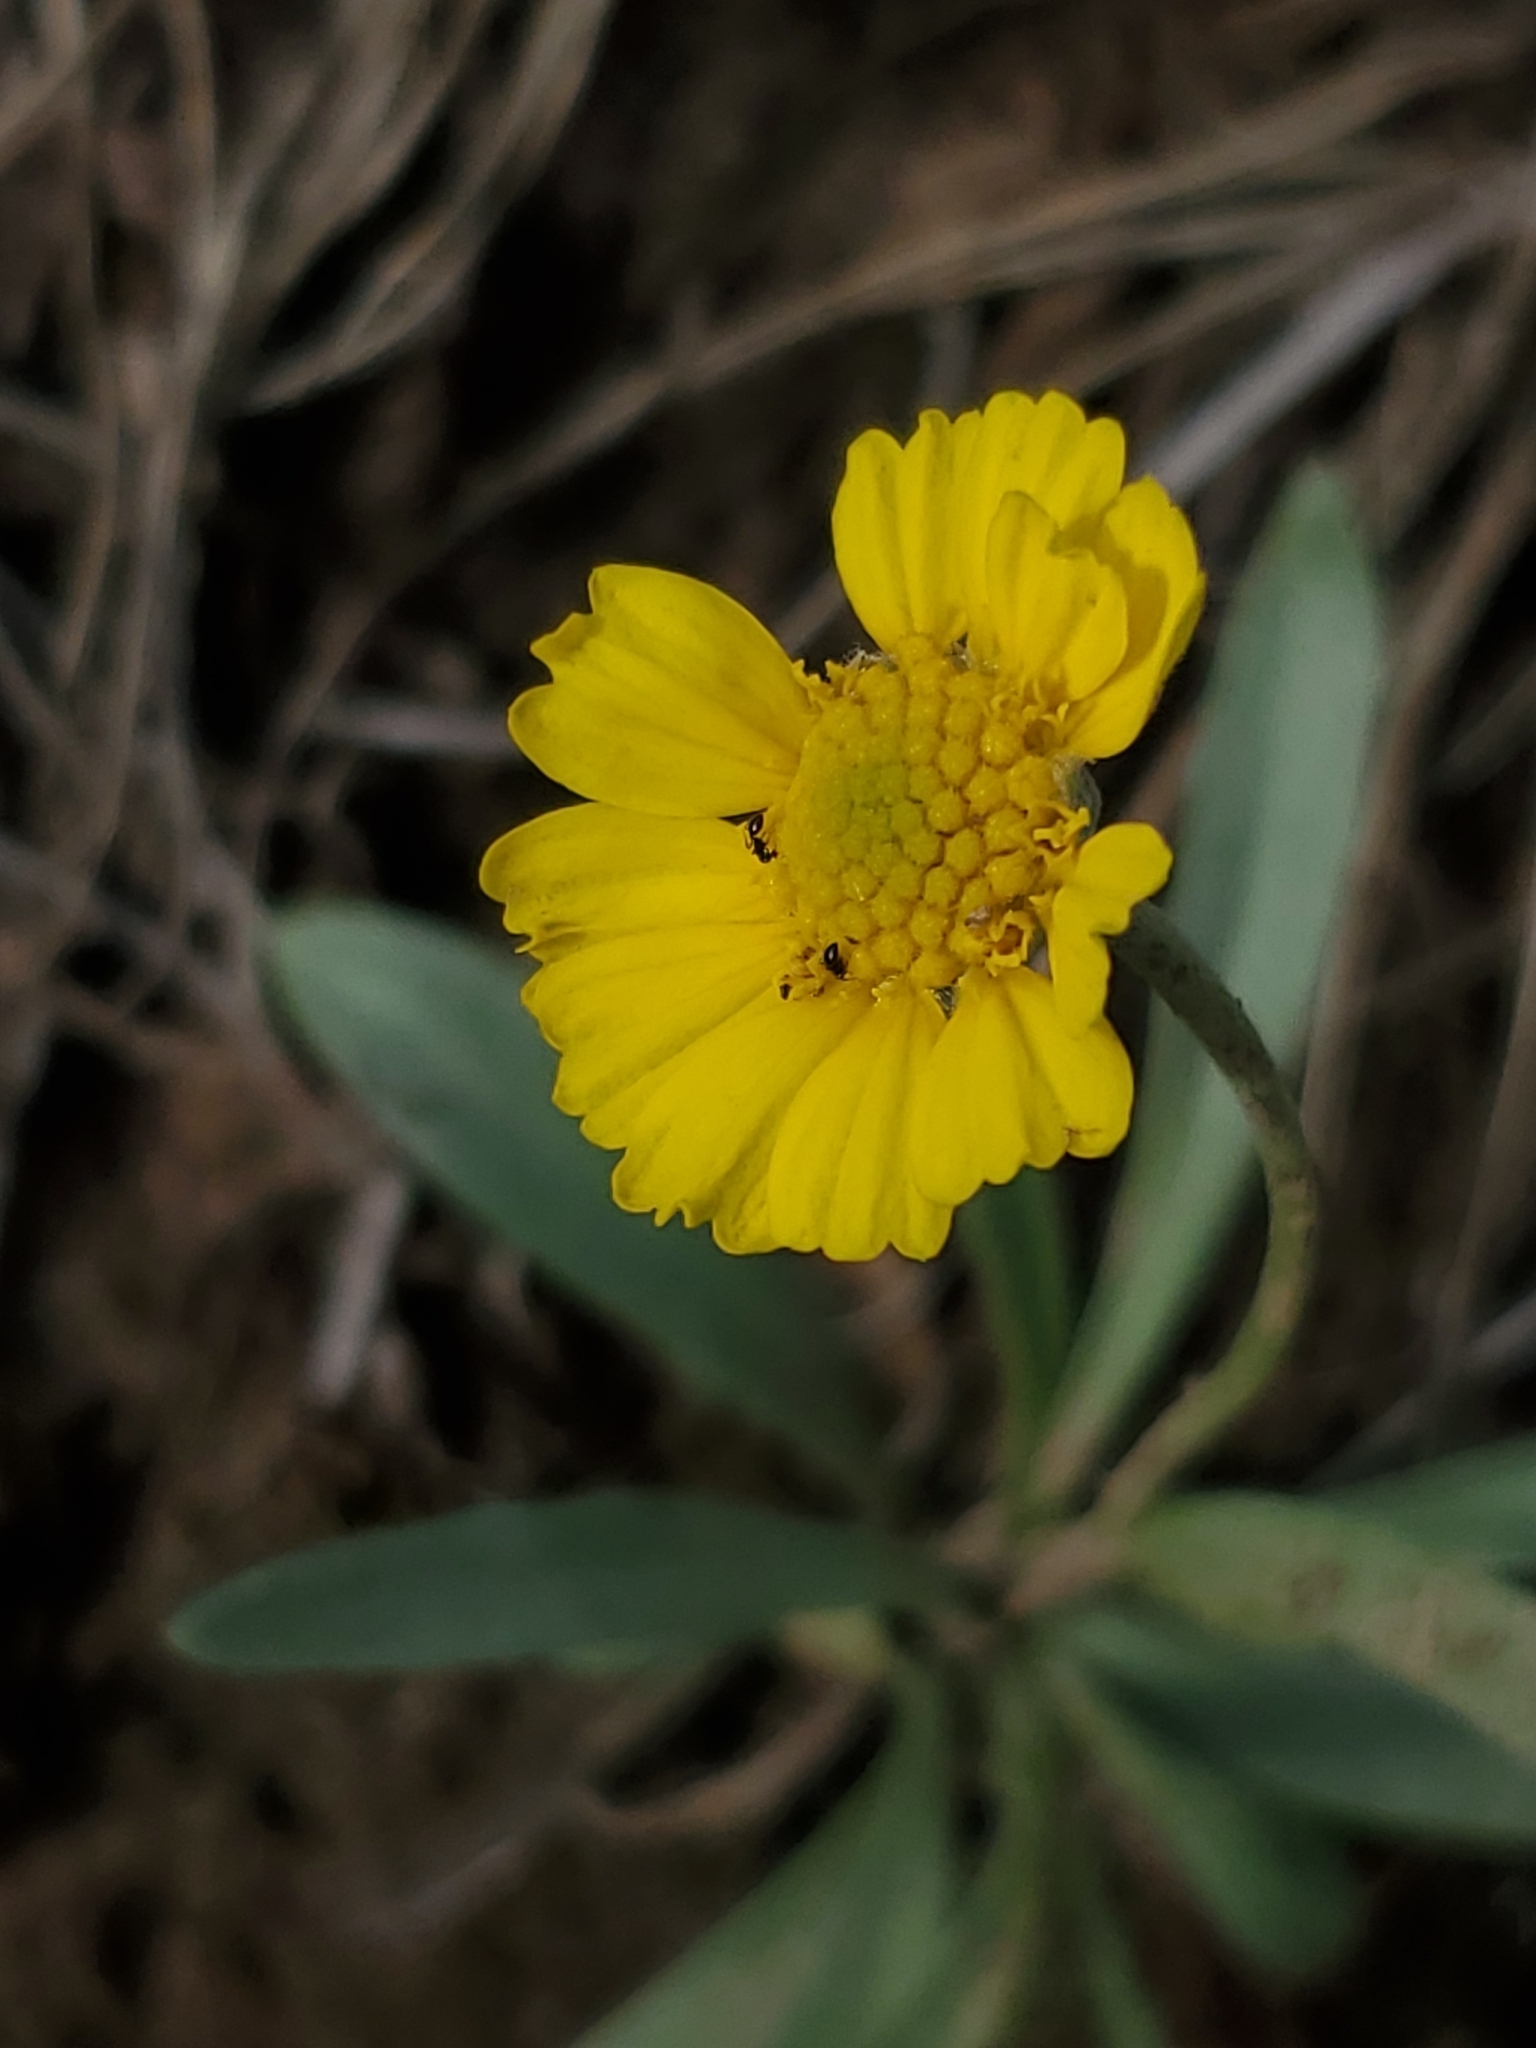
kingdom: Plantae
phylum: Tracheophyta
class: Magnoliopsida
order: Asterales
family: Asteraceae
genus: Tetraneuris
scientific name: Tetraneuris argentea
